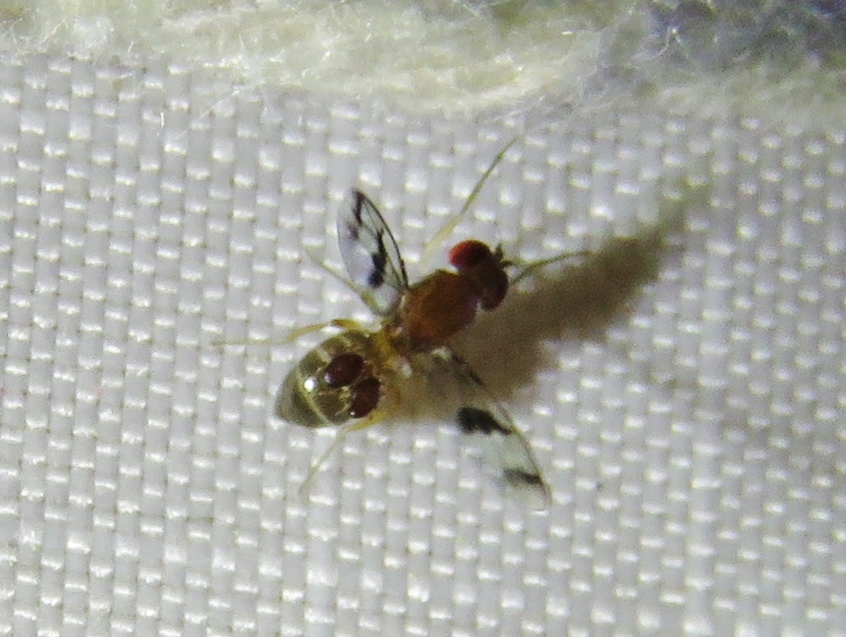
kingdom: Animalia
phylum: Arthropoda
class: Insecta
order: Diptera
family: Drosophilidae
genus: Chymomyza
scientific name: Chymomyza amoena
